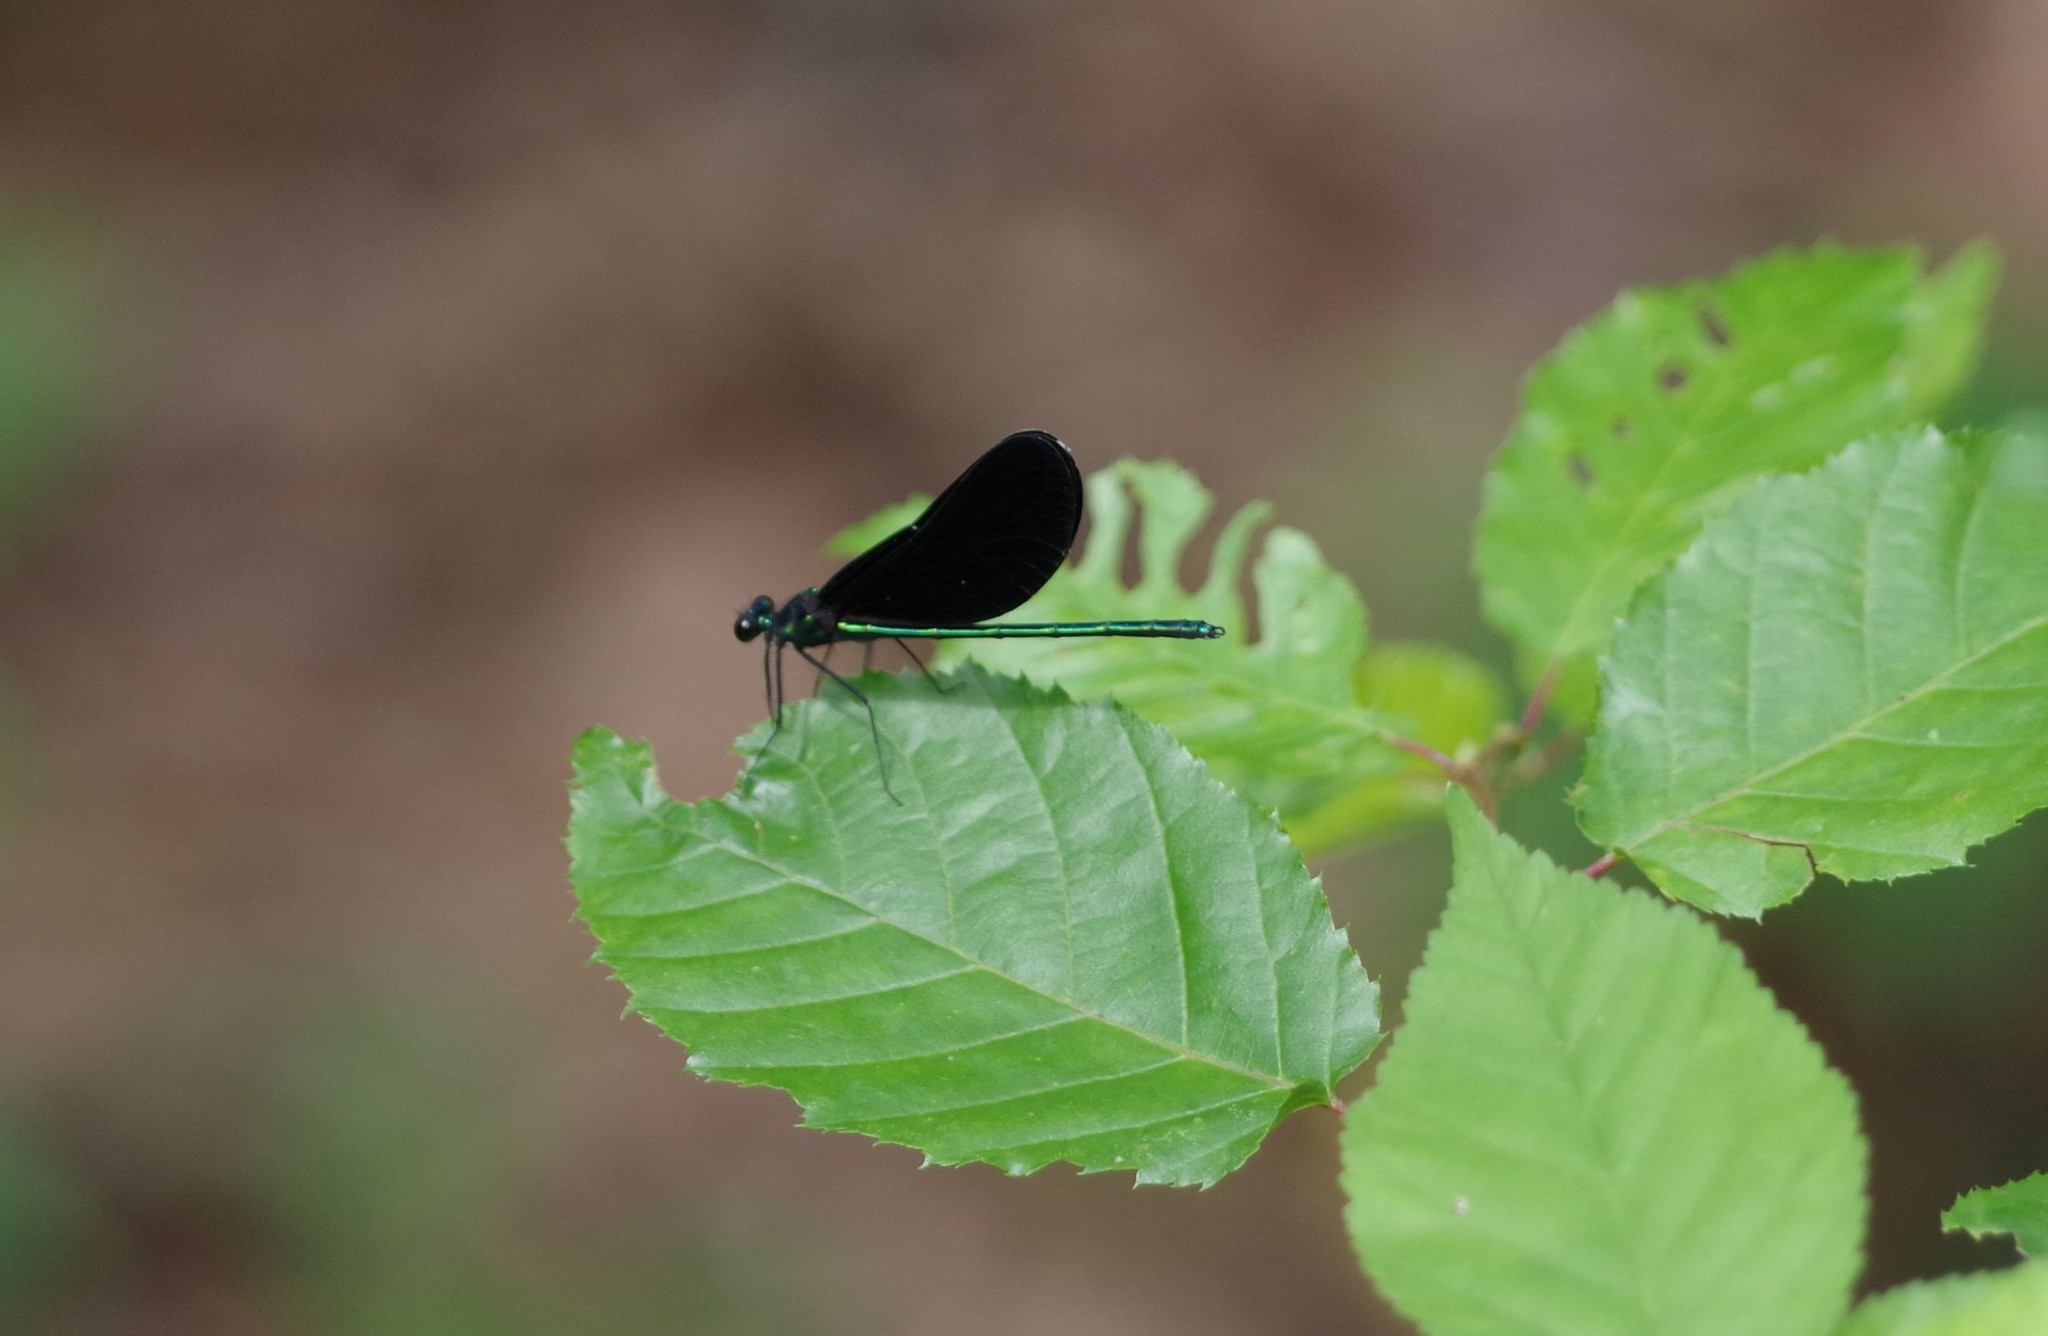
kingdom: Animalia
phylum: Arthropoda
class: Insecta
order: Odonata
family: Calopterygidae
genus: Calopteryx
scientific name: Calopteryx maculata
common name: Ebony jewelwing
